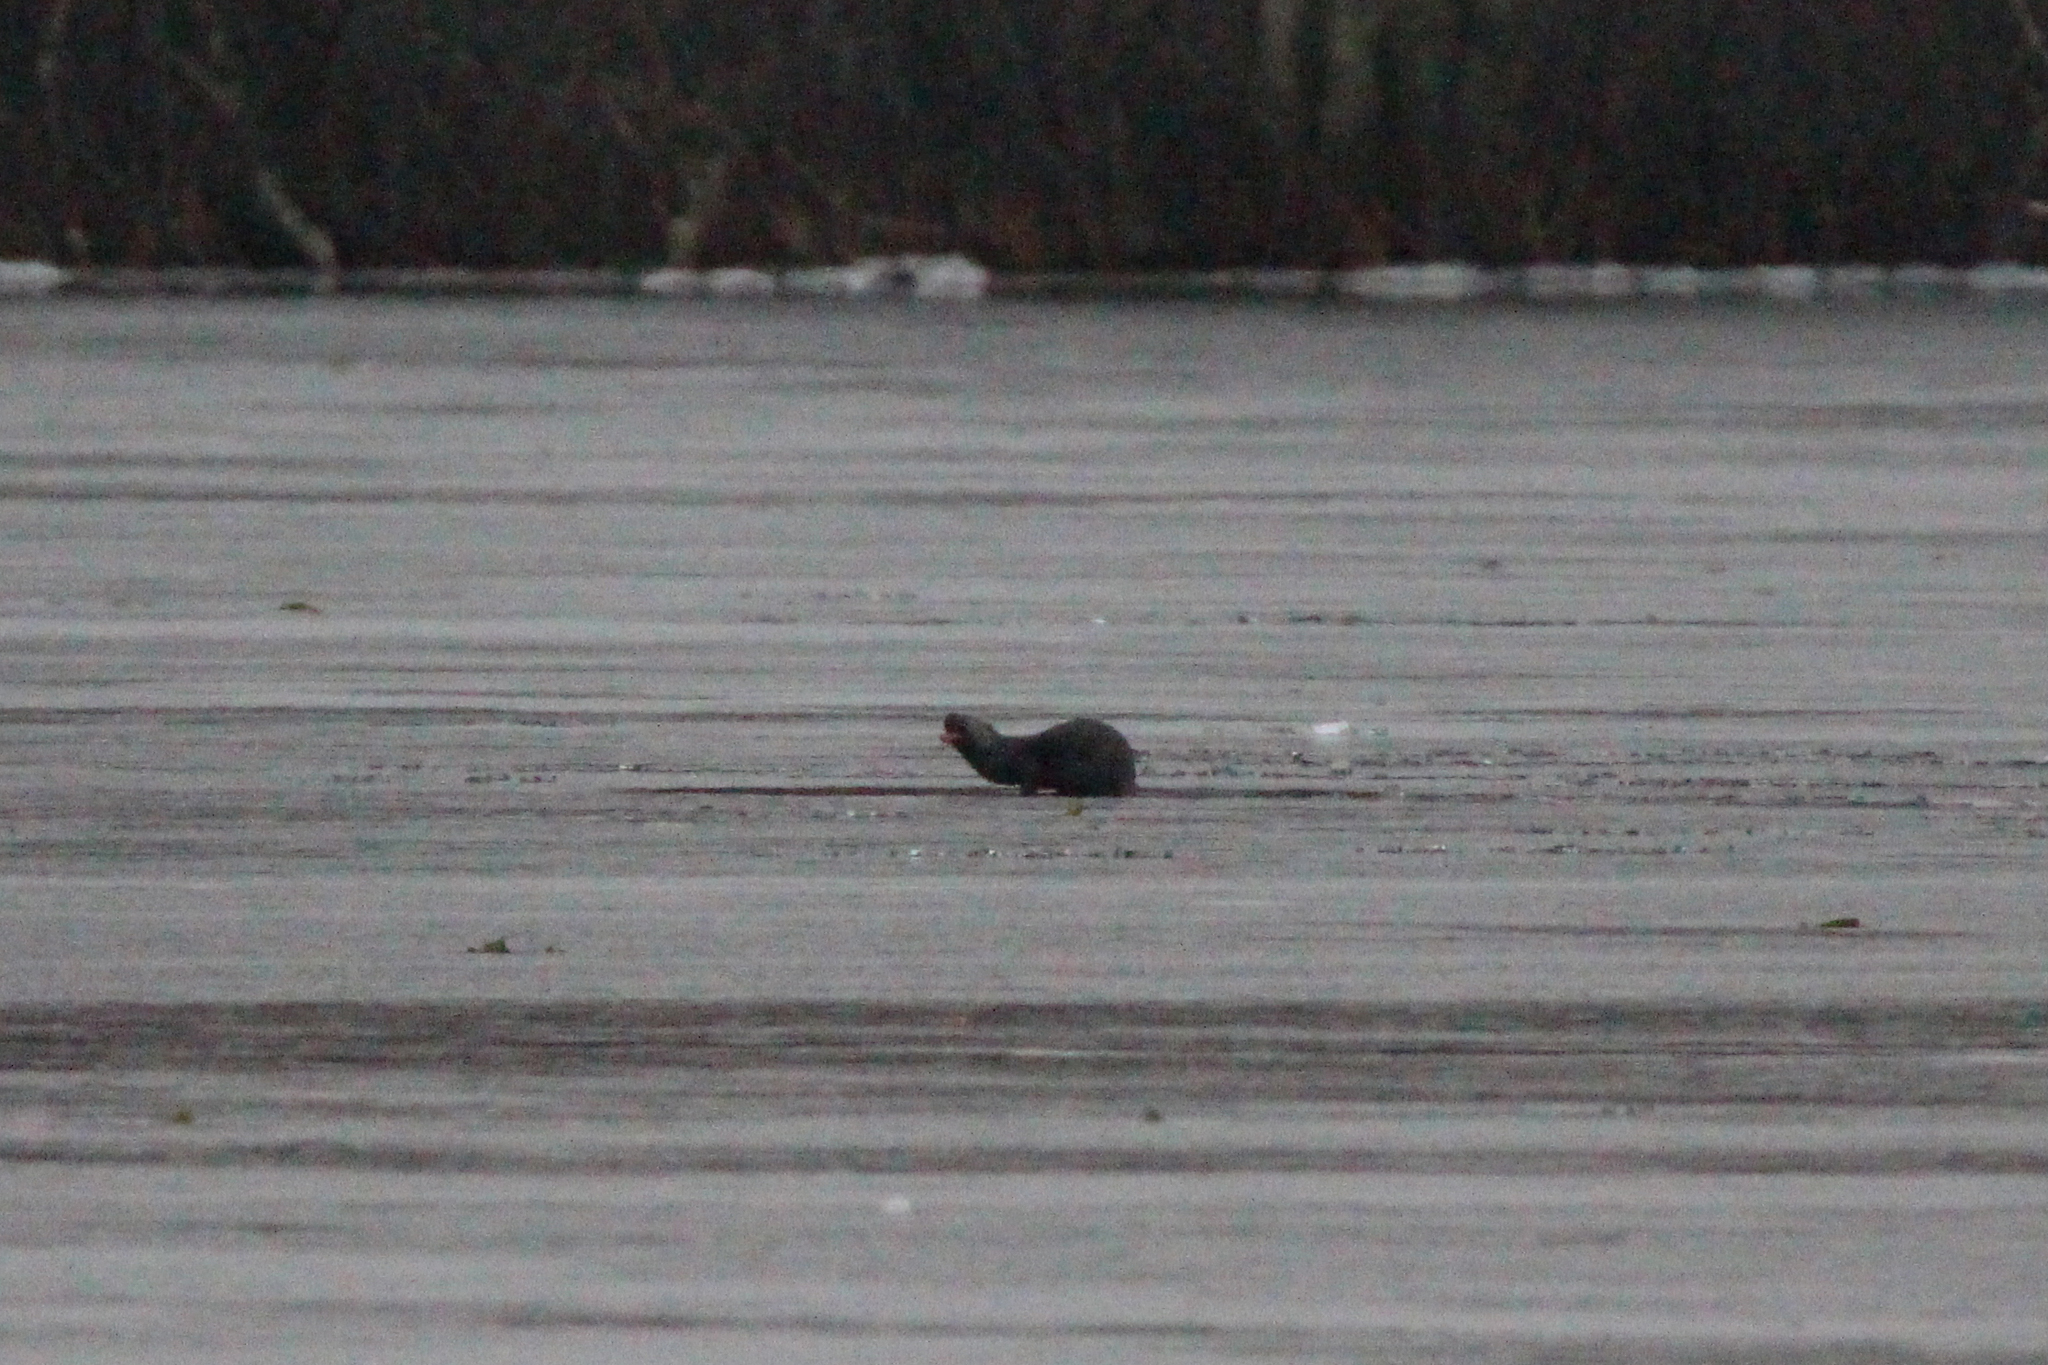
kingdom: Animalia
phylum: Chordata
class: Mammalia
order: Carnivora
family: Mustelidae
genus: Lontra
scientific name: Lontra canadensis
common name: North american river otter
